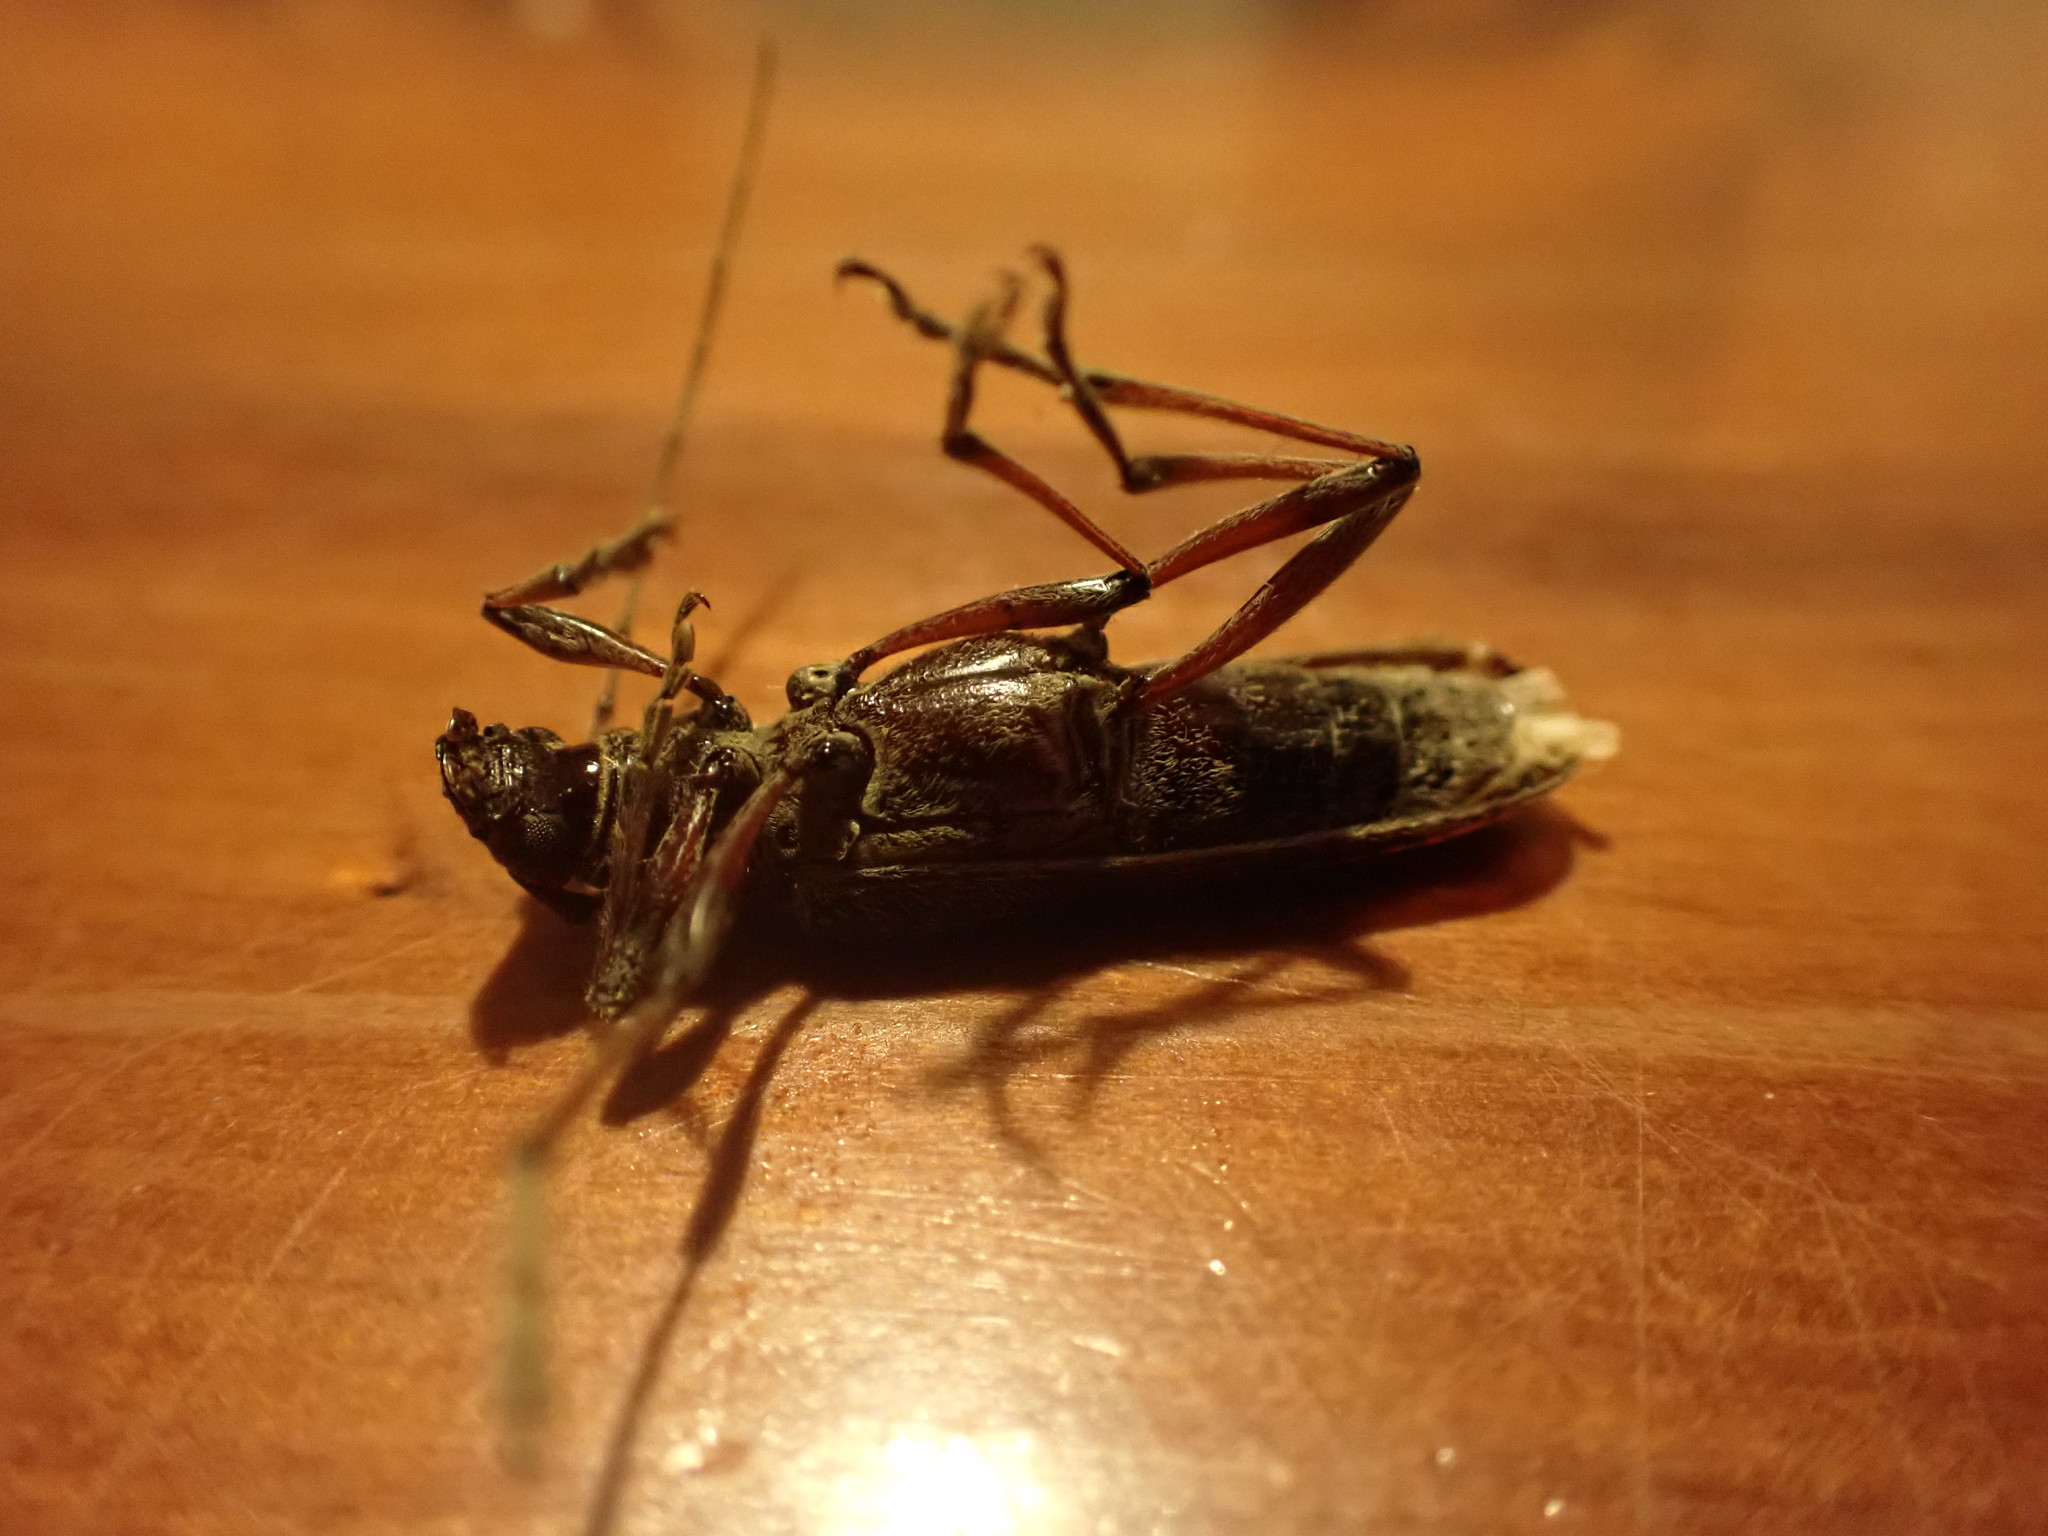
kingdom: Animalia
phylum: Arthropoda
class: Insecta
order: Coleoptera
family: Cerambycidae
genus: Oemona
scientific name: Oemona hirta
